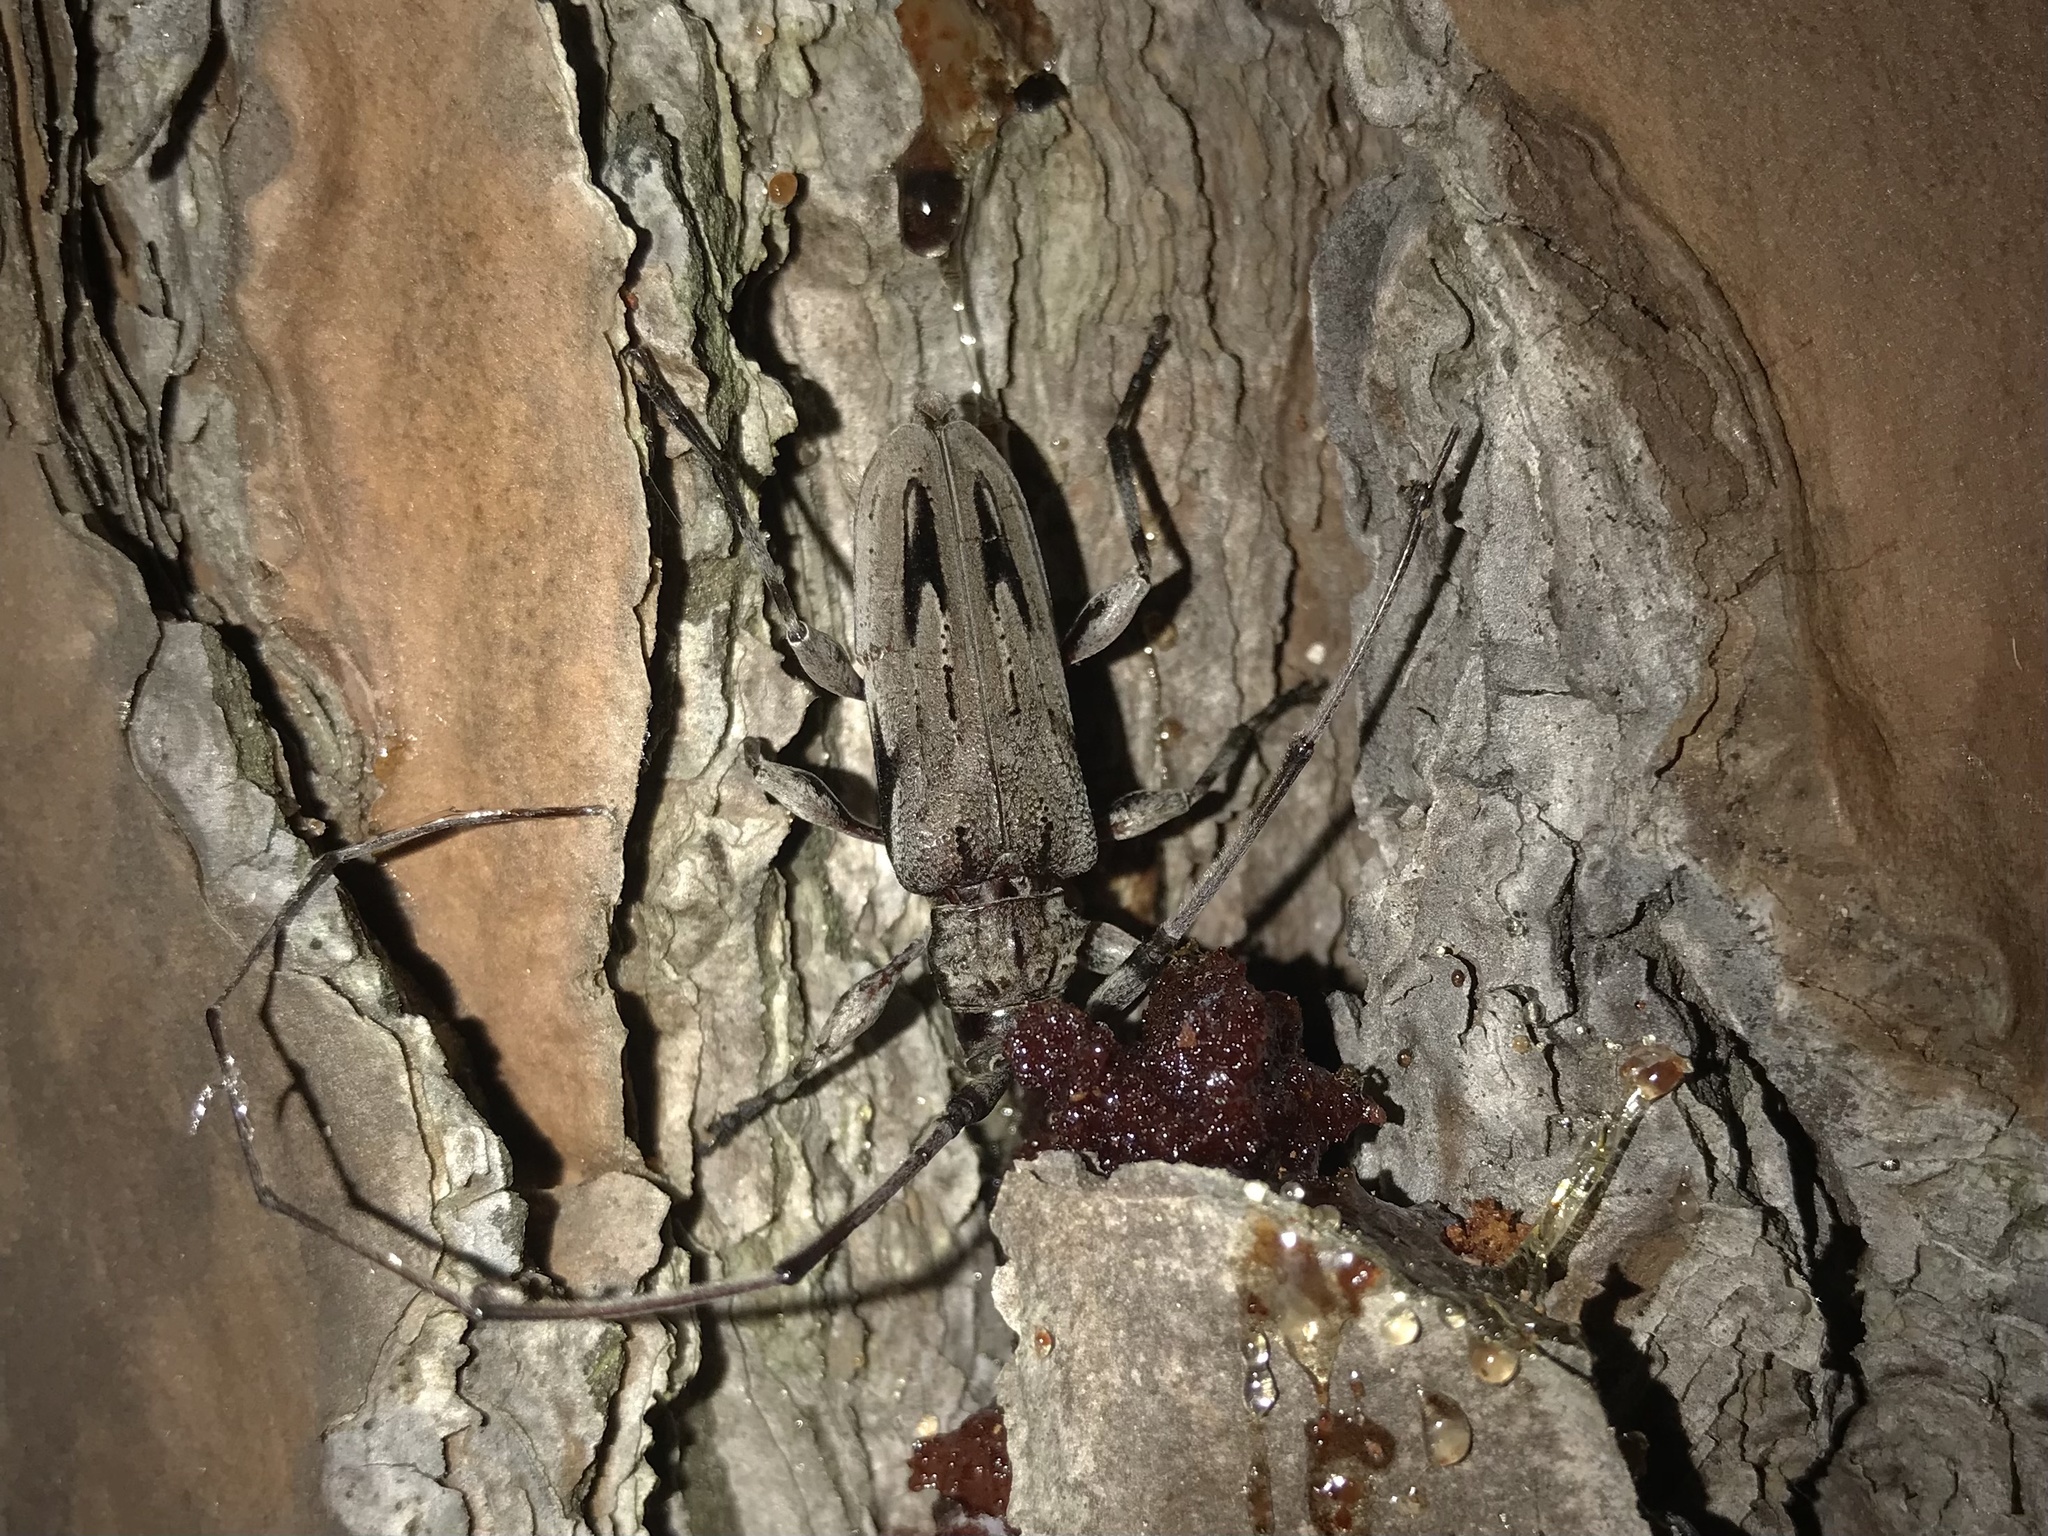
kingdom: Animalia
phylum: Arthropoda
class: Insecta
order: Coleoptera
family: Cerambycidae
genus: Acanthocinus
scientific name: Acanthocinus nodosus
